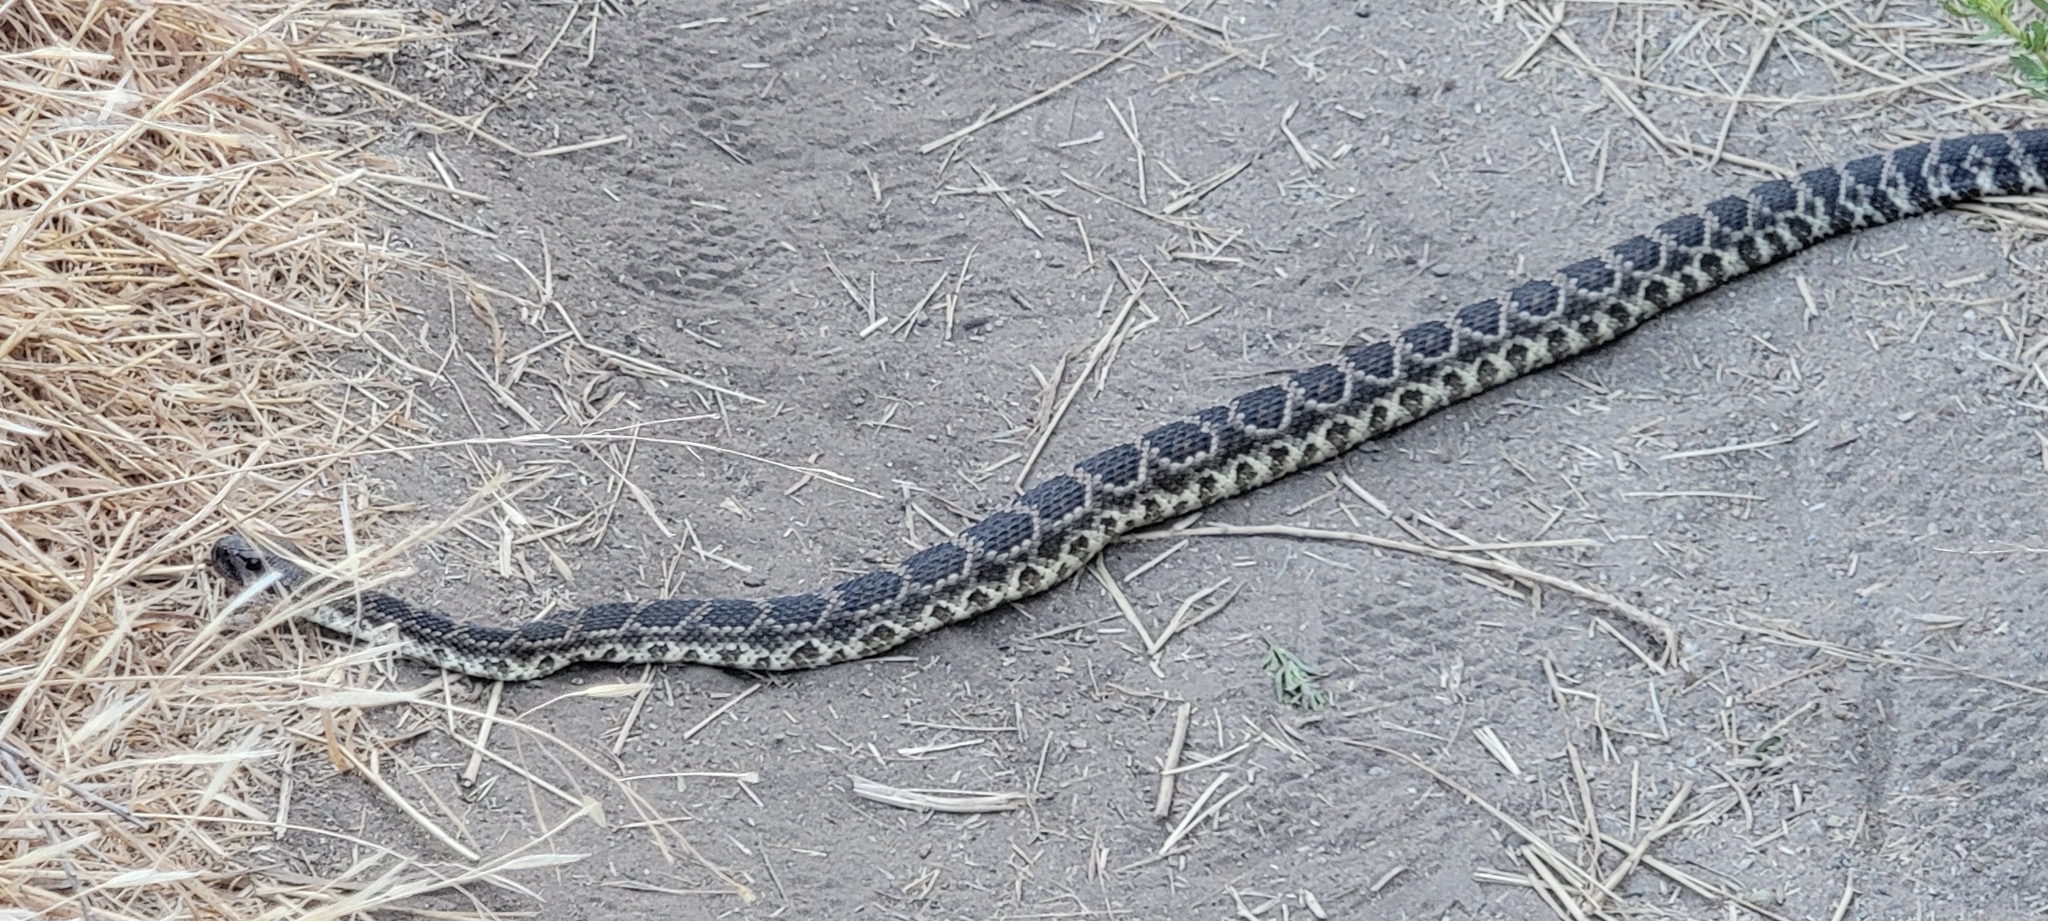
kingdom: Animalia
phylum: Chordata
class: Squamata
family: Viperidae
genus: Crotalus
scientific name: Crotalus oreganus
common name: Abyssus
